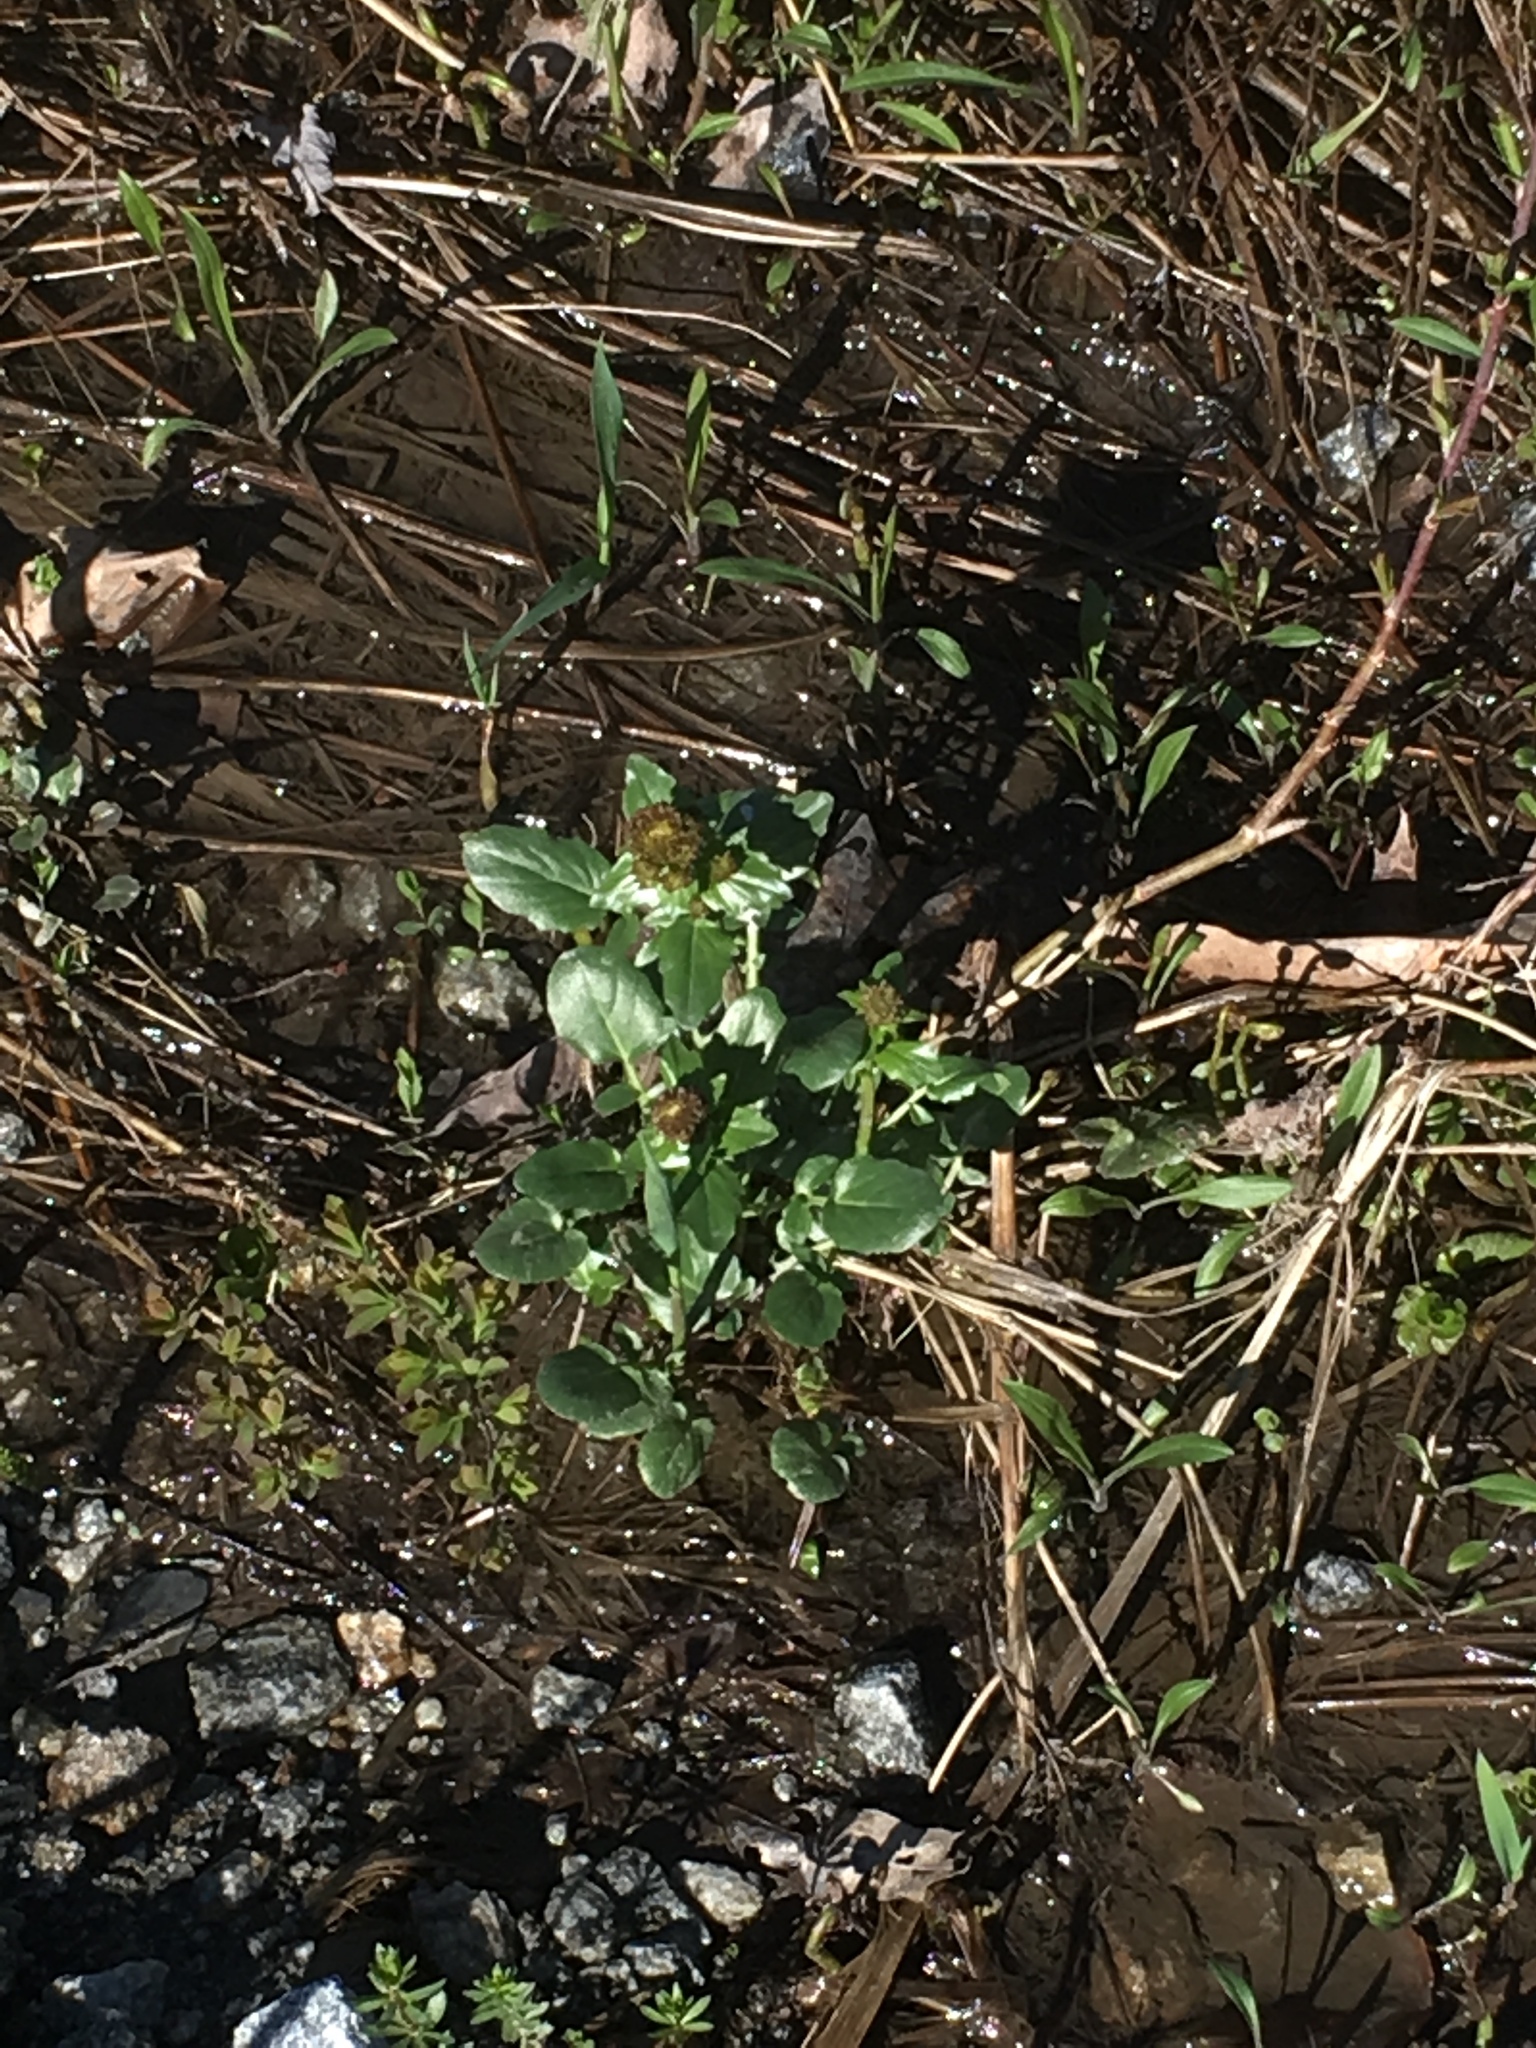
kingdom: Plantae
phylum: Tracheophyta
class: Magnoliopsida
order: Brassicales
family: Brassicaceae
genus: Barbarea
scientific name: Barbarea vulgaris
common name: Cressy-greens
